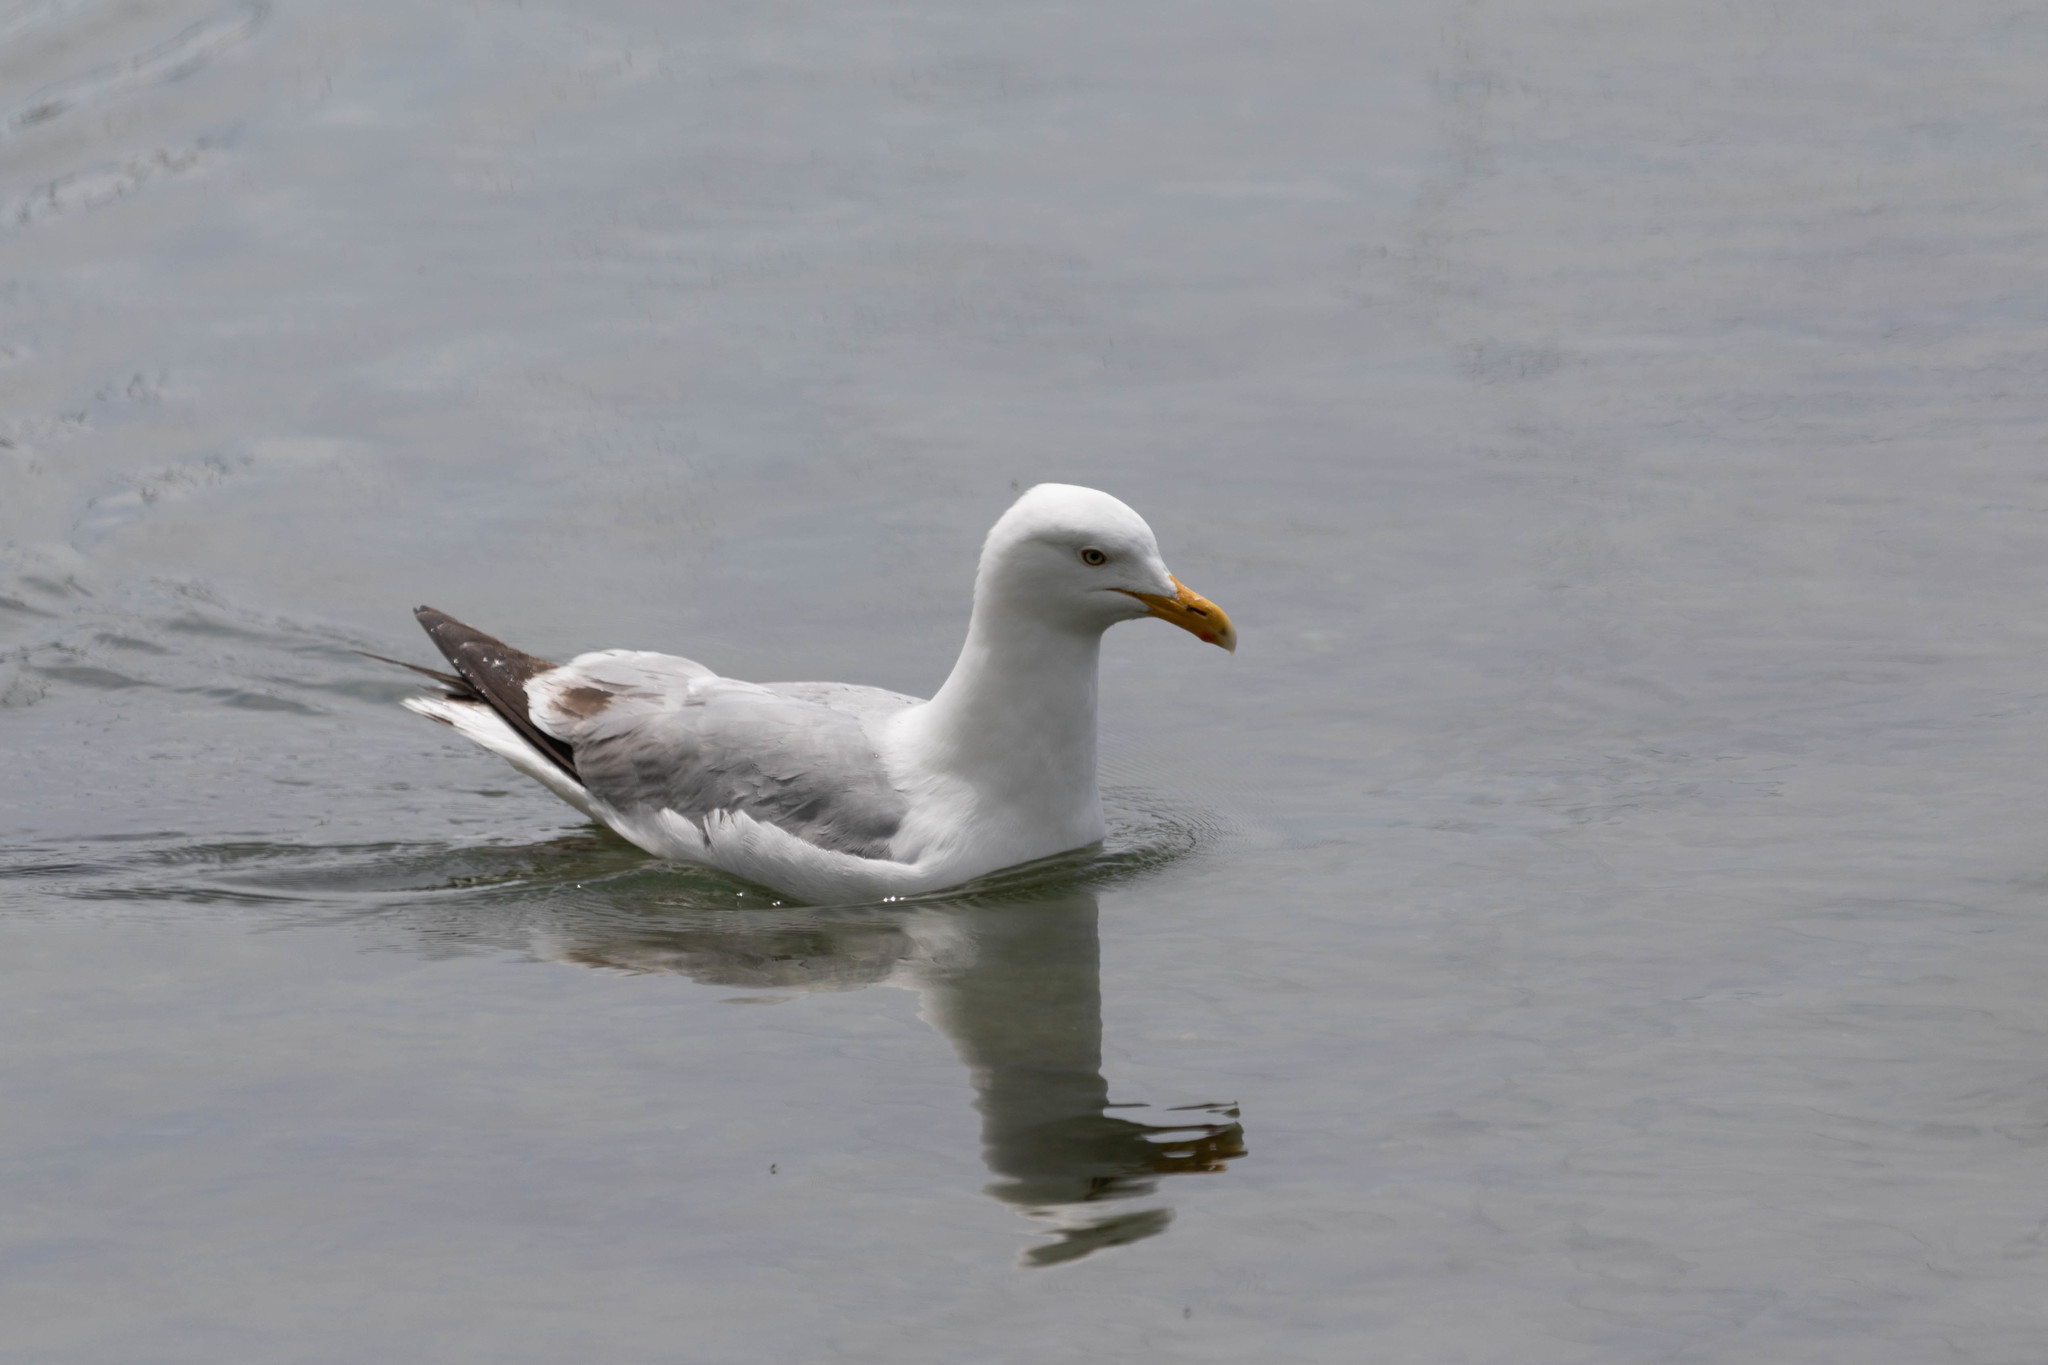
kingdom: Animalia
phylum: Chordata
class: Aves
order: Charadriiformes
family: Laridae
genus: Larus
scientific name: Larus argentatus
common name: Herring gull
